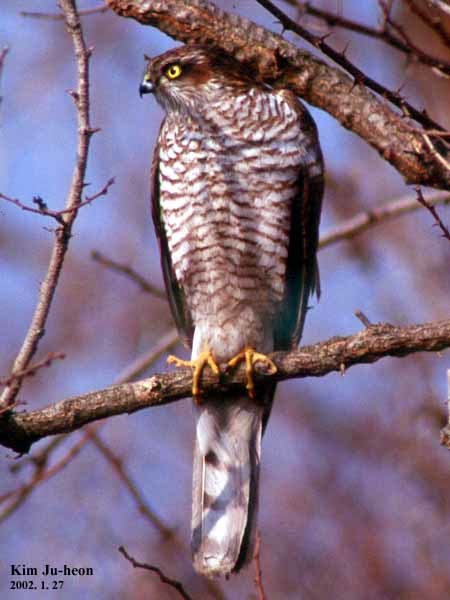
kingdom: Animalia
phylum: Chordata
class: Aves
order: Accipitriformes
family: Accipitridae
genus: Accipiter
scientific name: Accipiter nisus
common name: Eurasian sparrowhawk
